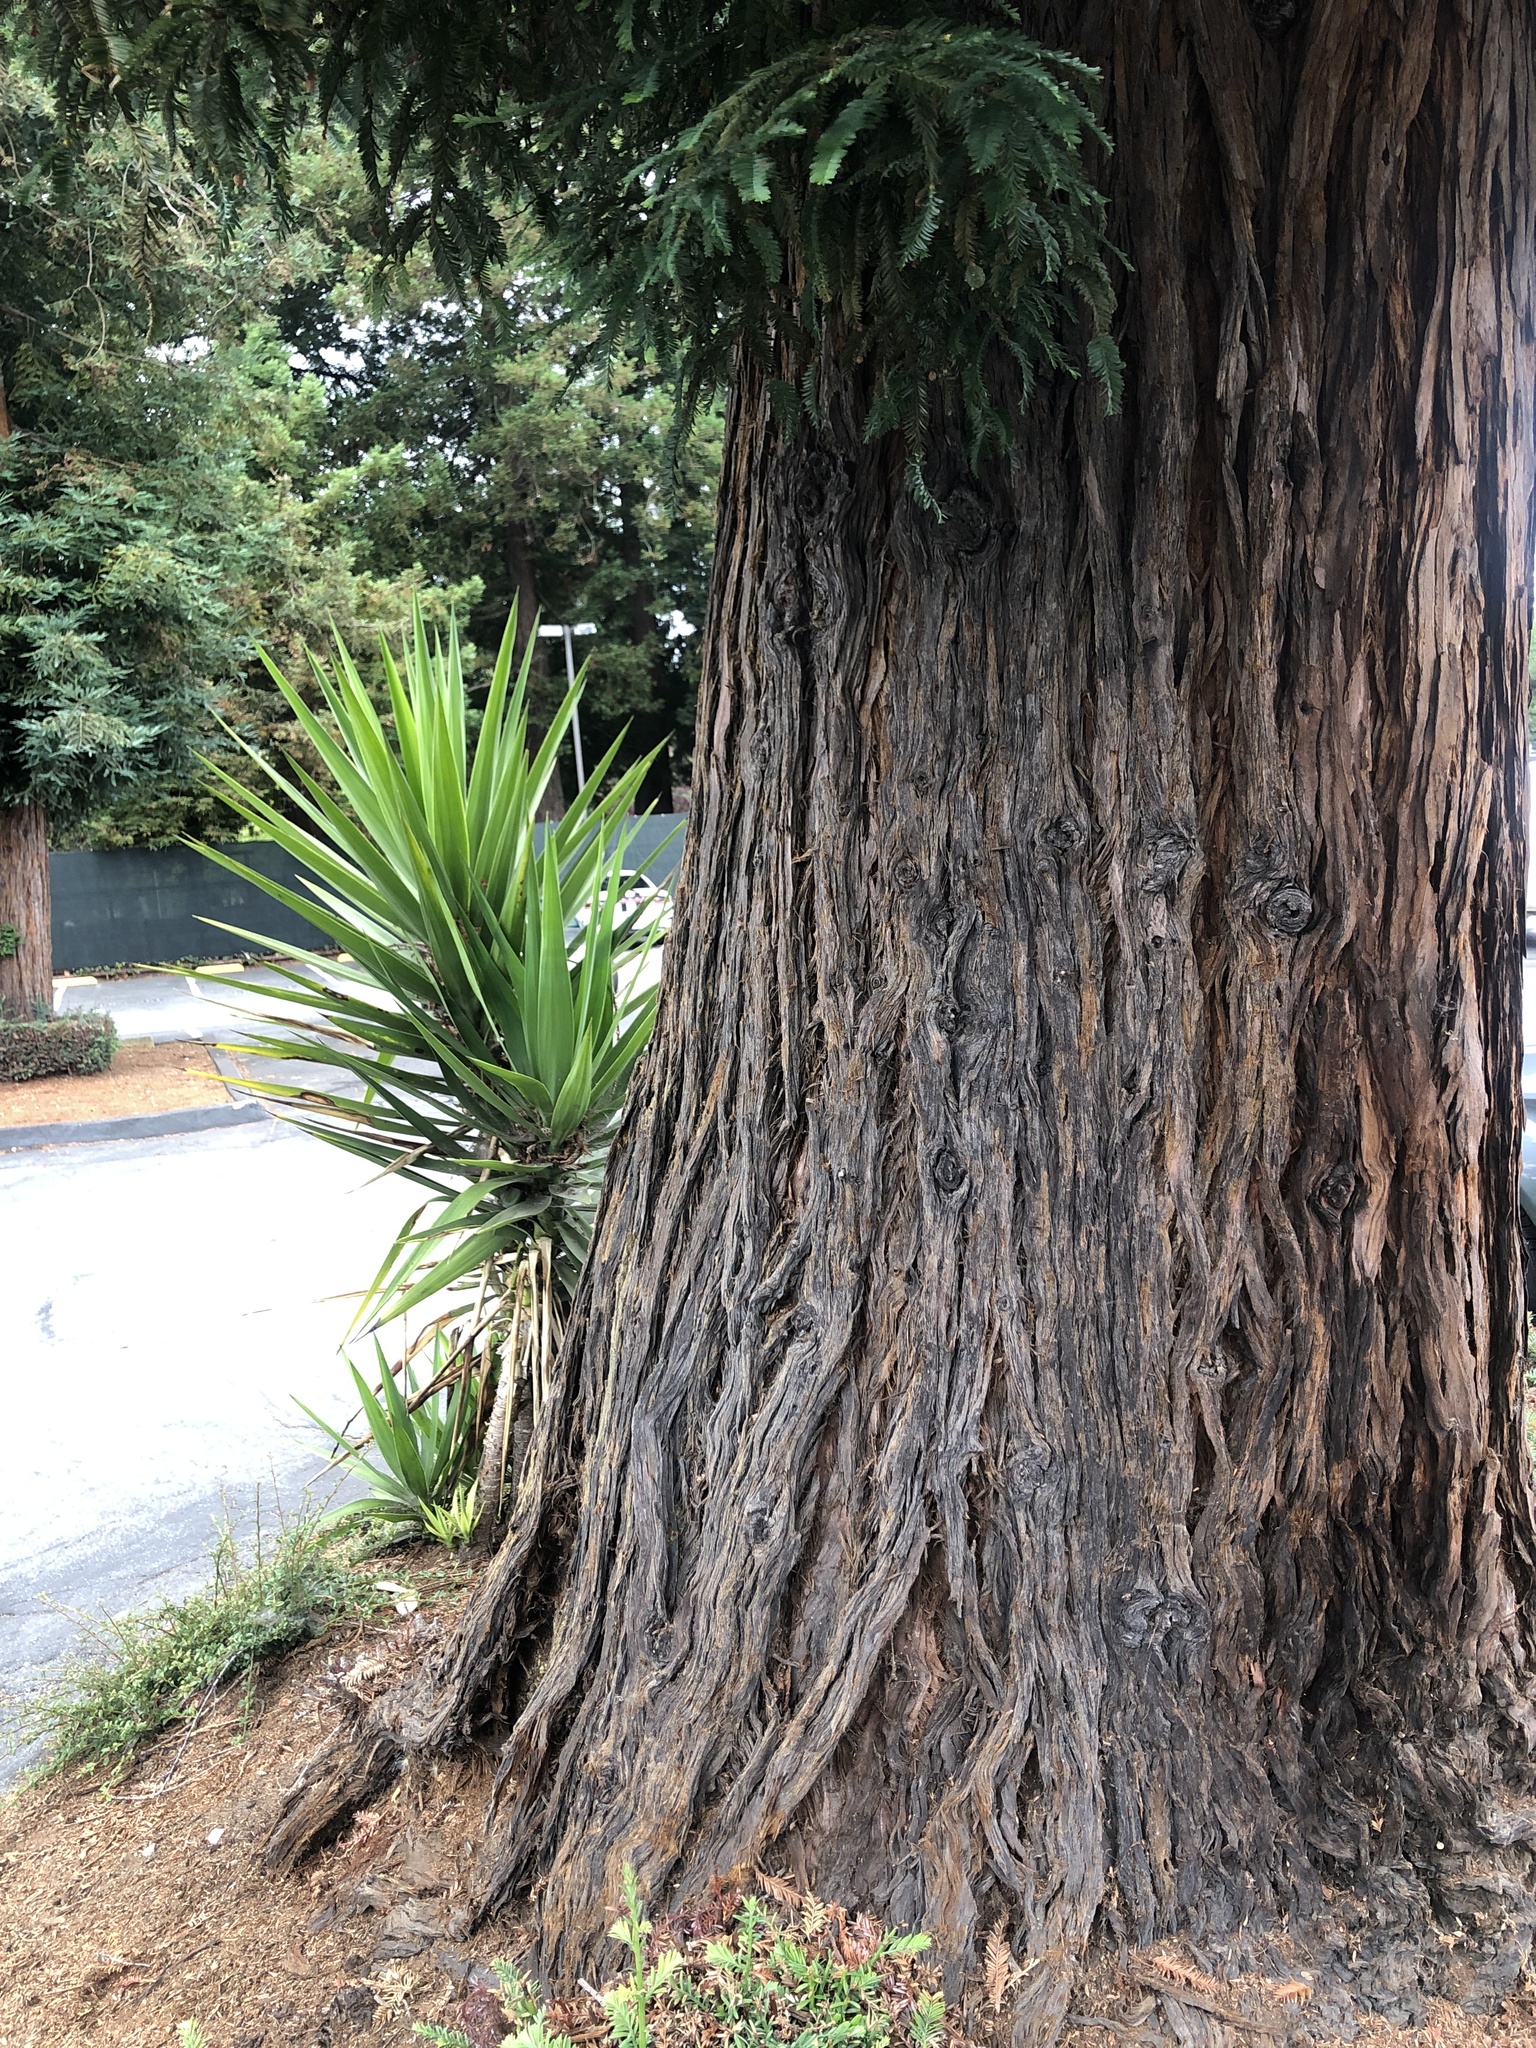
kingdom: Plantae
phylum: Tracheophyta
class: Pinopsida
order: Pinales
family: Cupressaceae
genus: Sequoia
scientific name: Sequoia sempervirens
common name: Coast redwood
